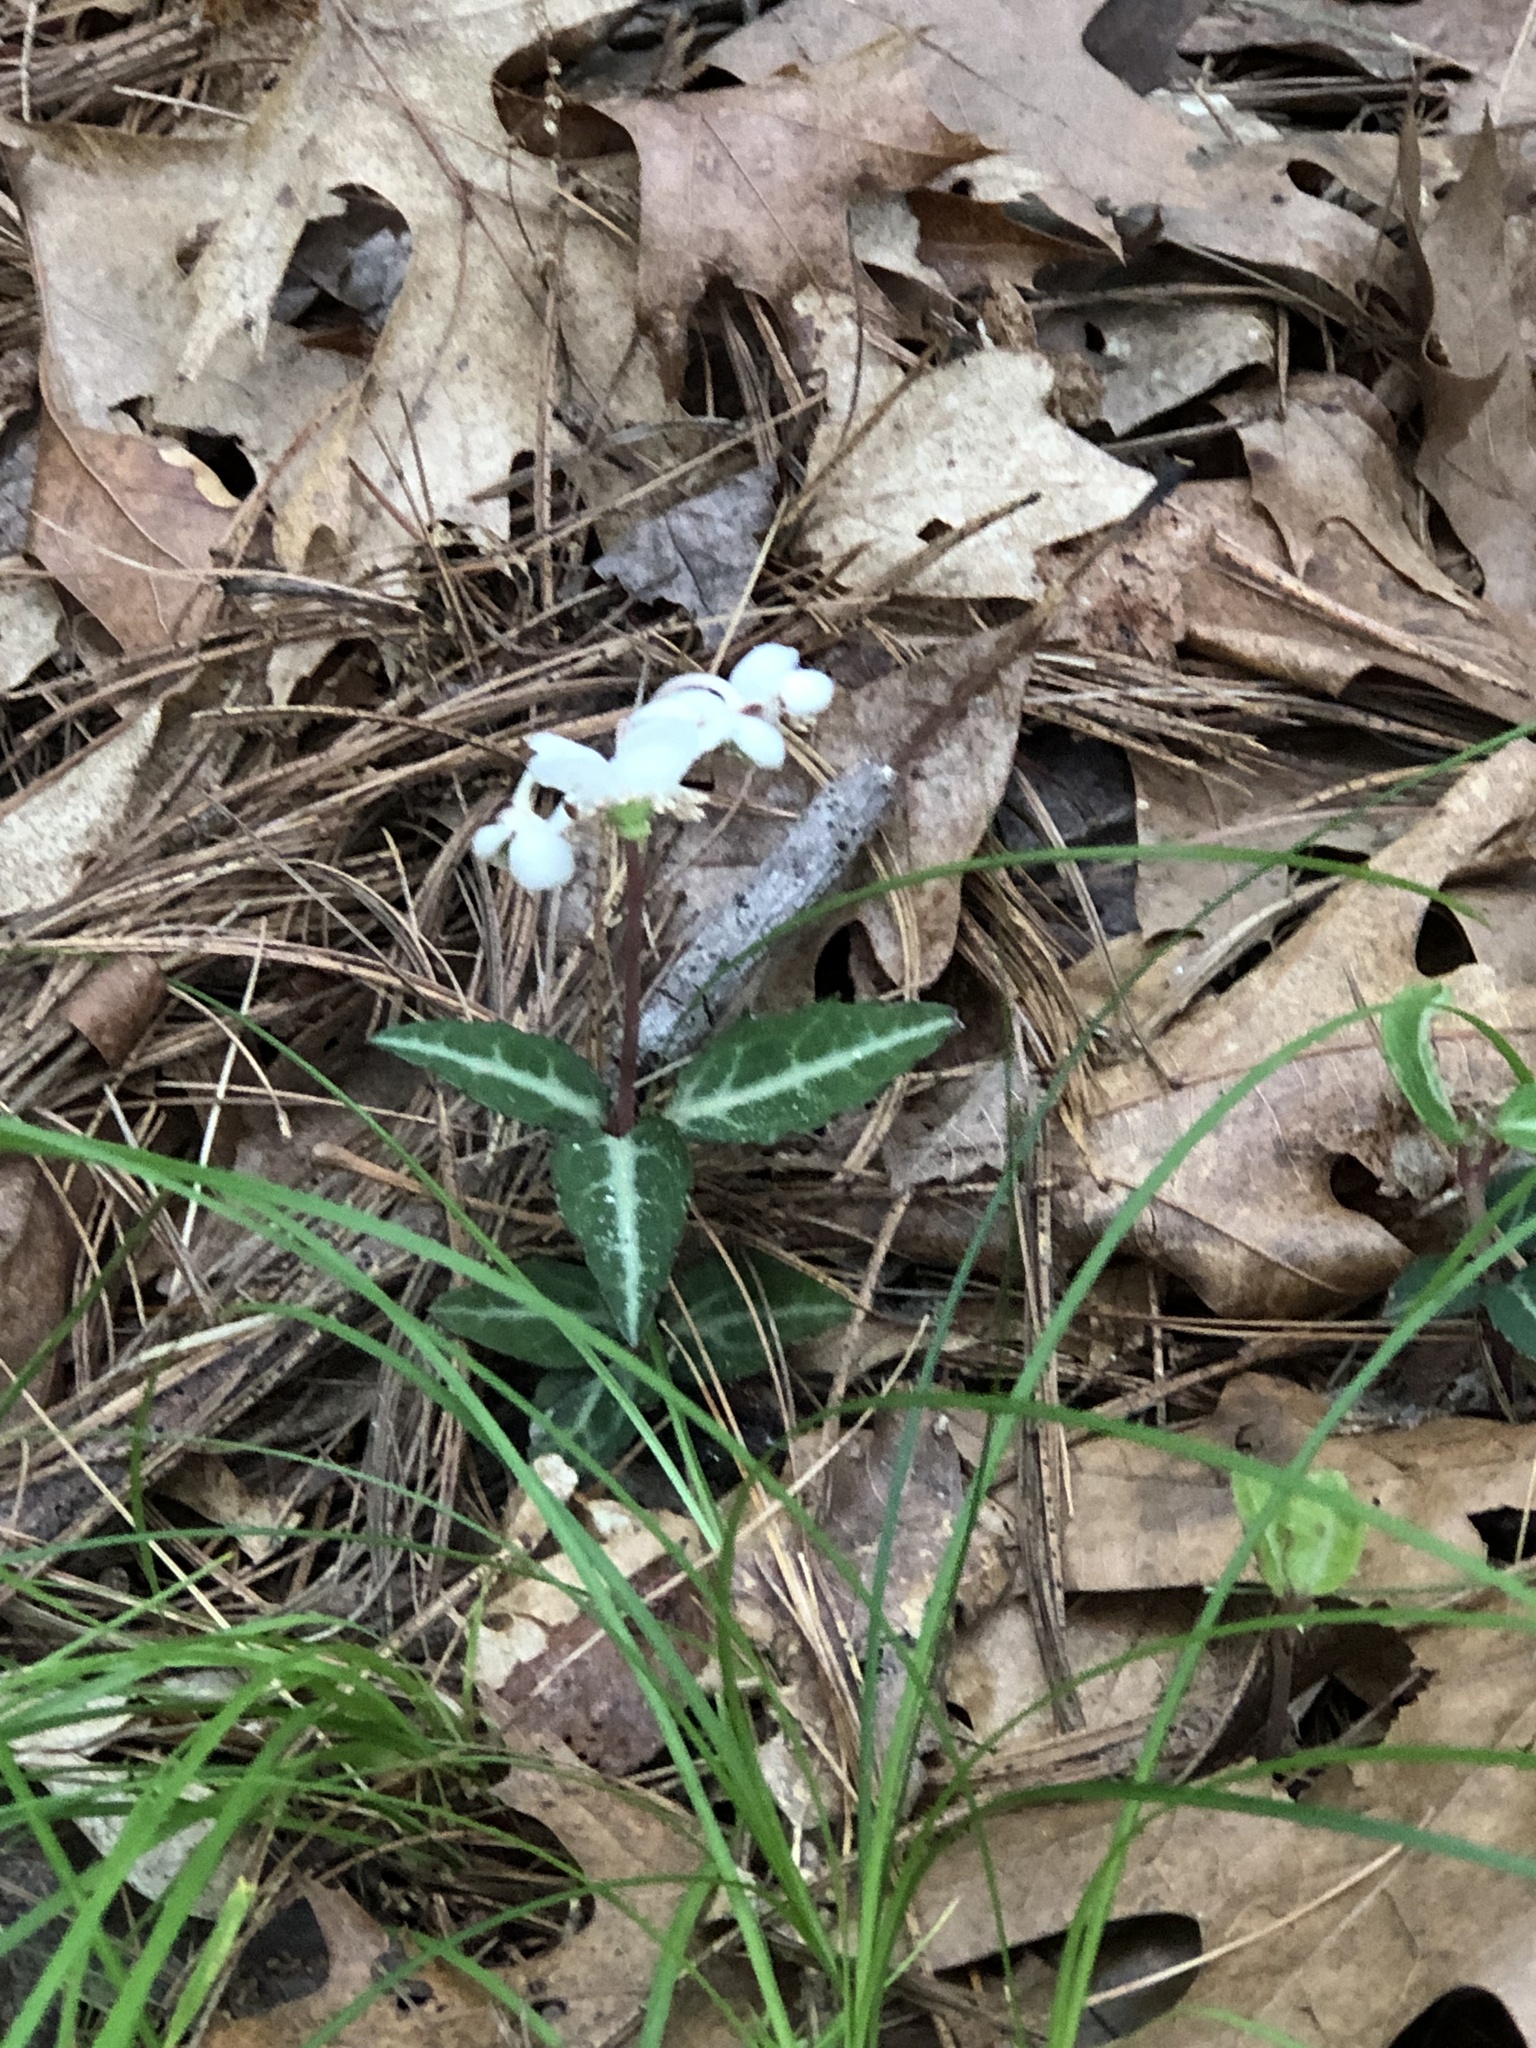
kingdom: Plantae
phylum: Tracheophyta
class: Magnoliopsida
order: Ericales
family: Ericaceae
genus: Chimaphila
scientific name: Chimaphila maculata
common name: Spotted pipsissewa
